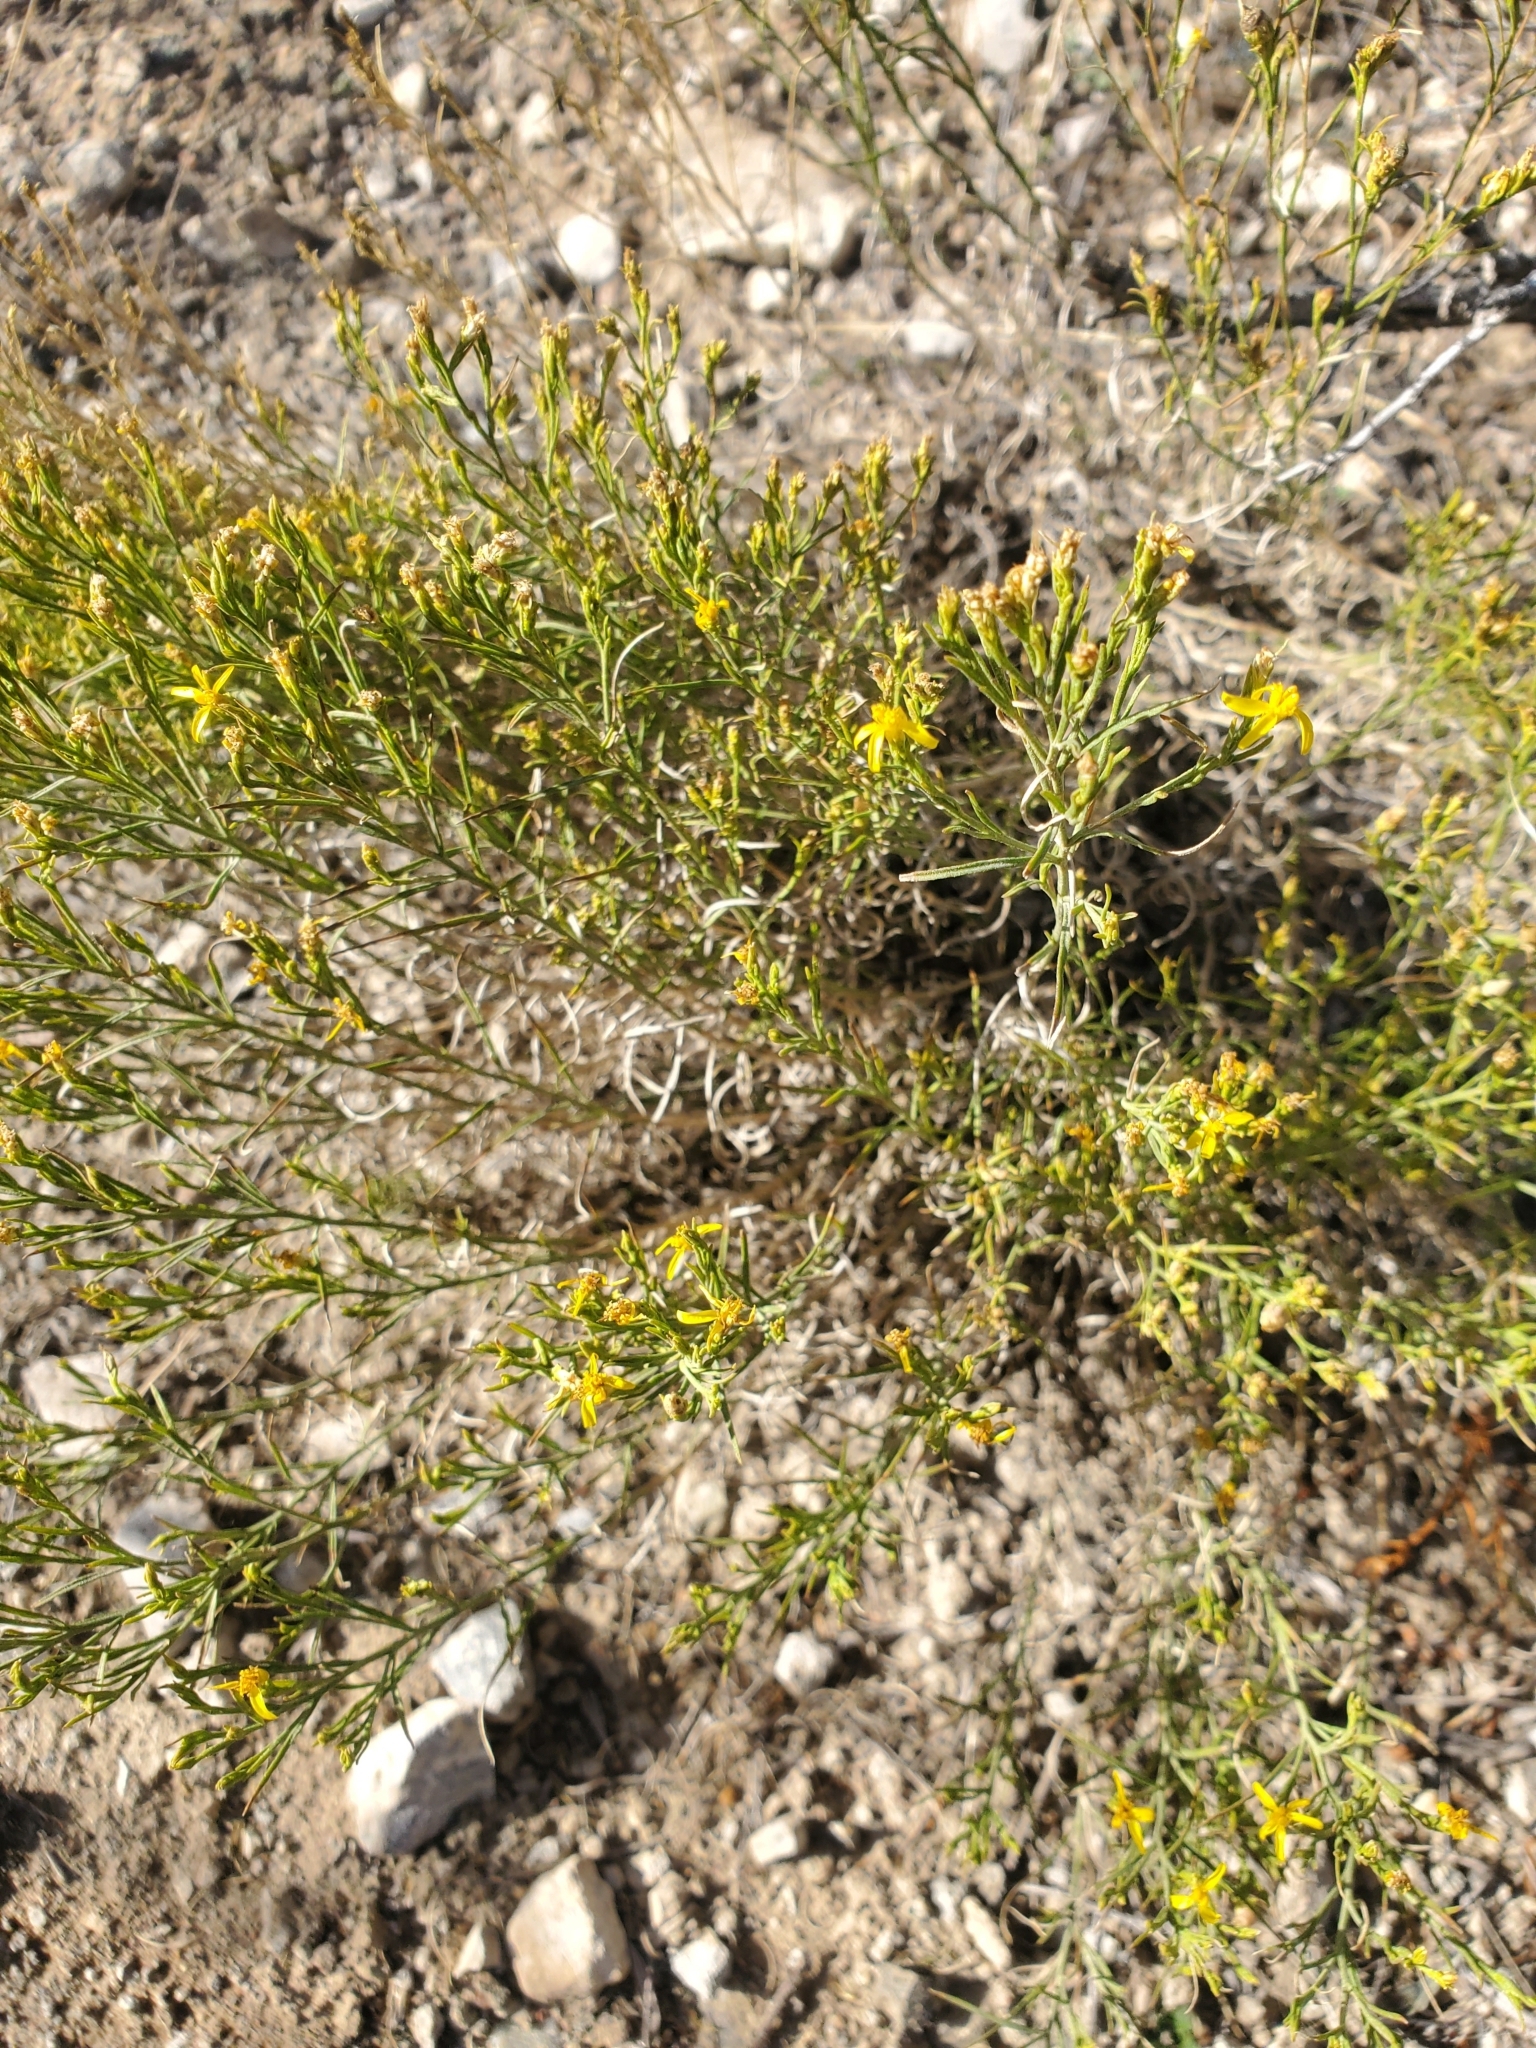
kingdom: Plantae
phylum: Tracheophyta
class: Magnoliopsida
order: Asterales
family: Asteraceae
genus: Gutierrezia
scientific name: Gutierrezia sarothrae
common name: Broom snakeweed
